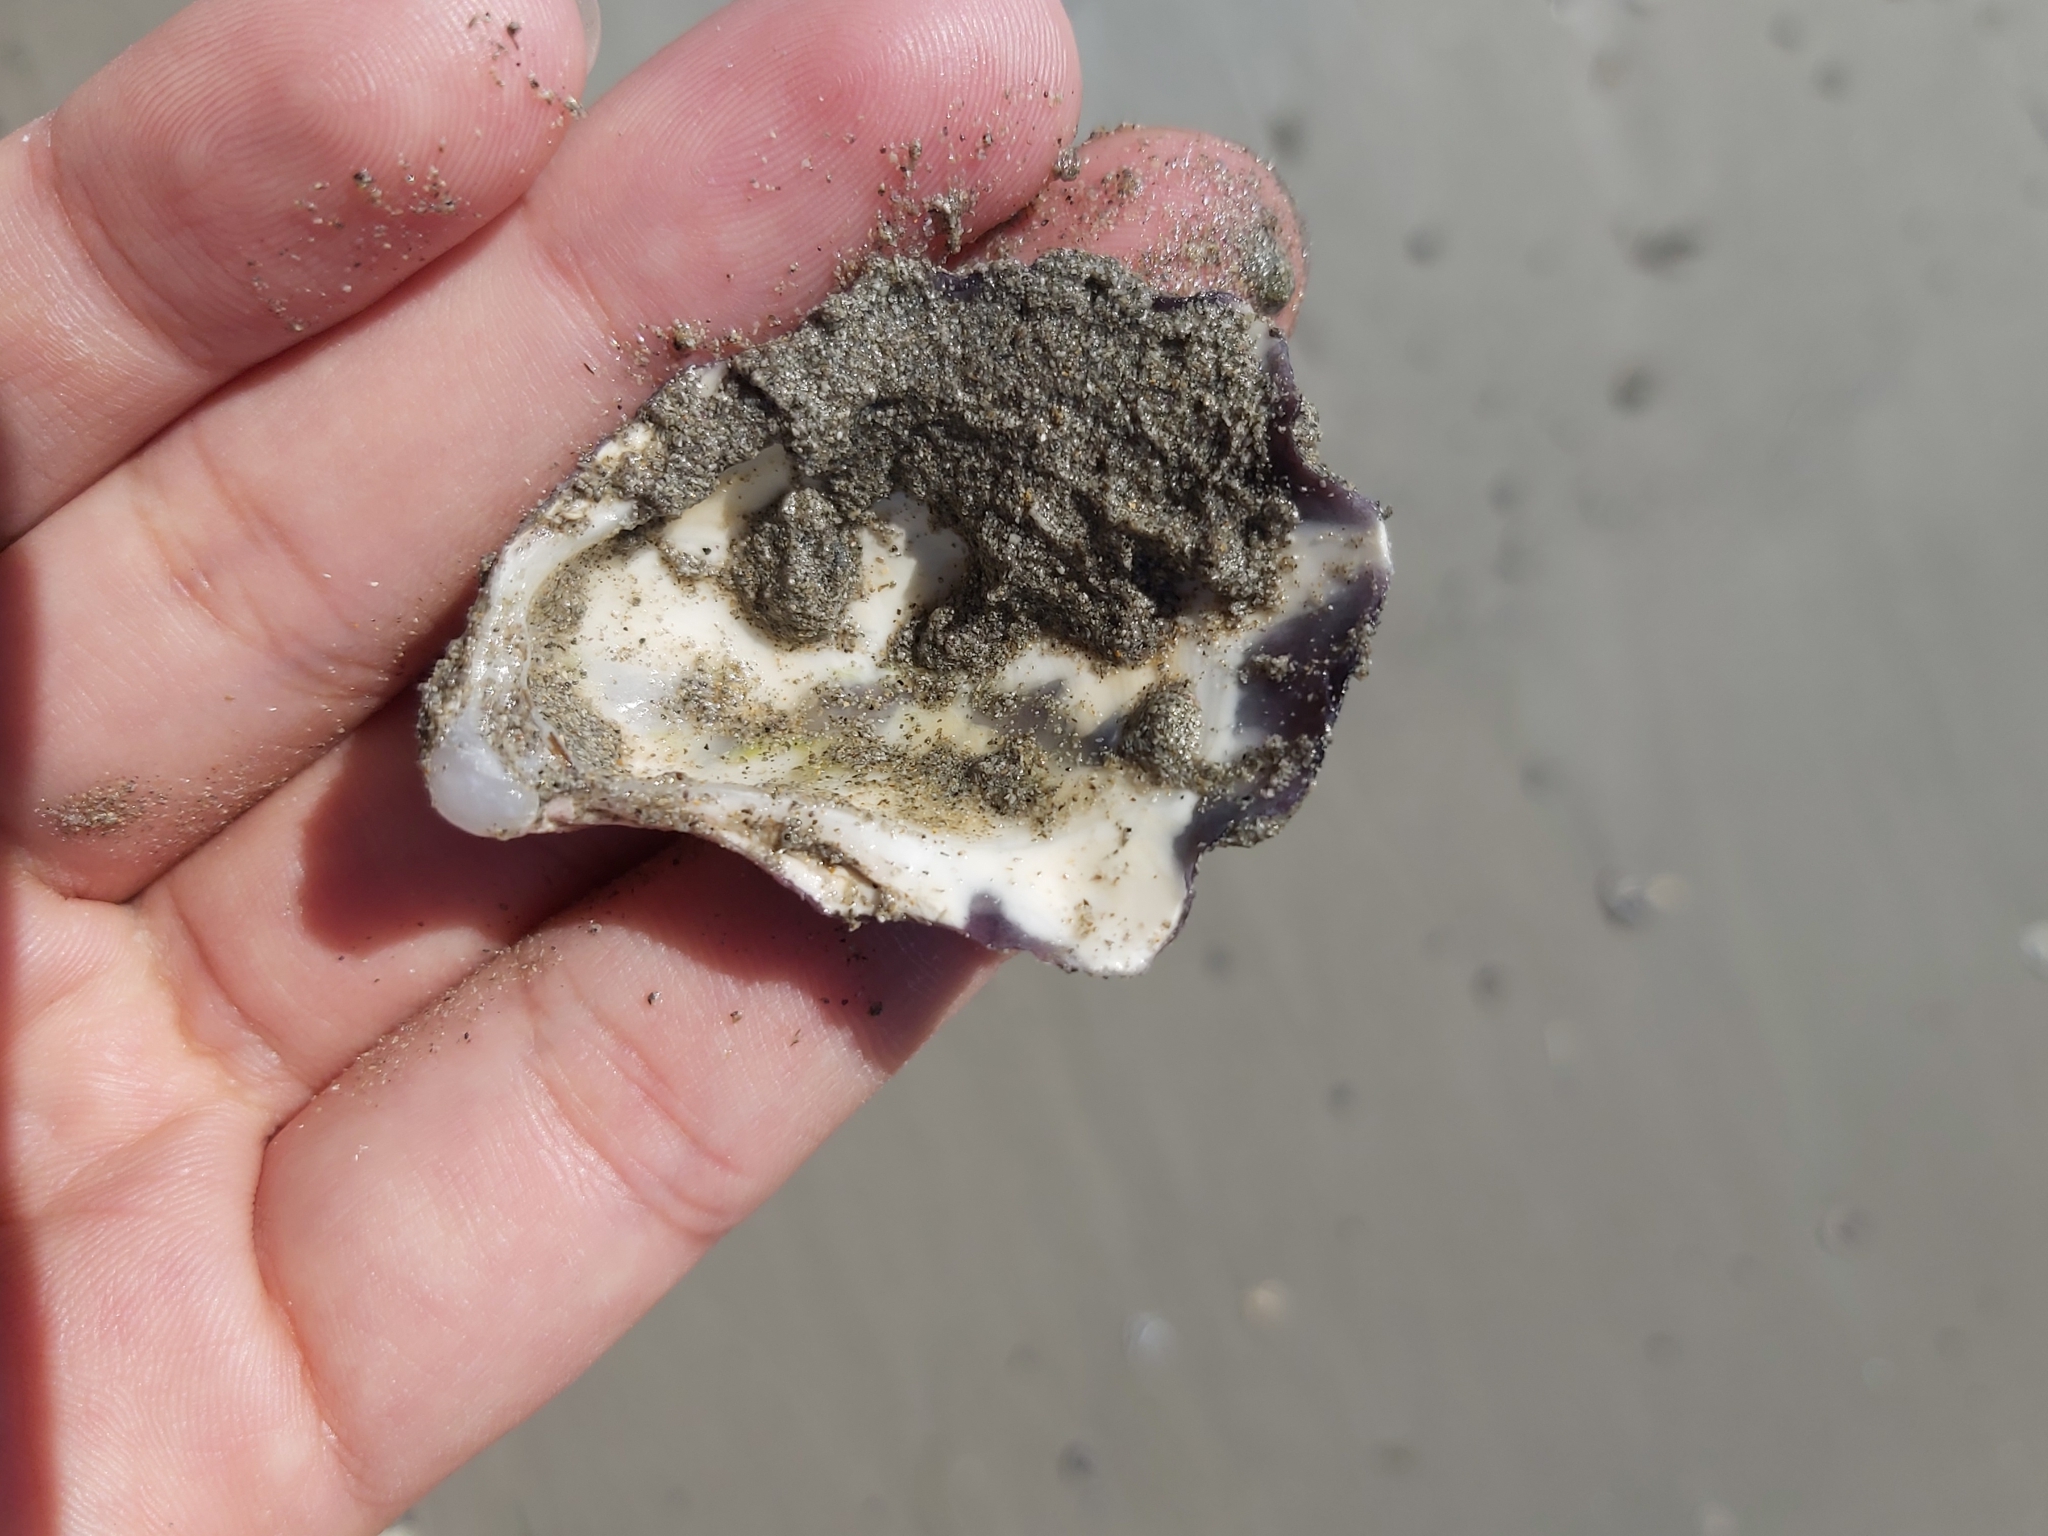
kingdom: Animalia
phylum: Mollusca
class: Bivalvia
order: Ostreida
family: Ostreidae
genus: Saccostrea
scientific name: Saccostrea glomerata
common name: Sydney cupped oyster
